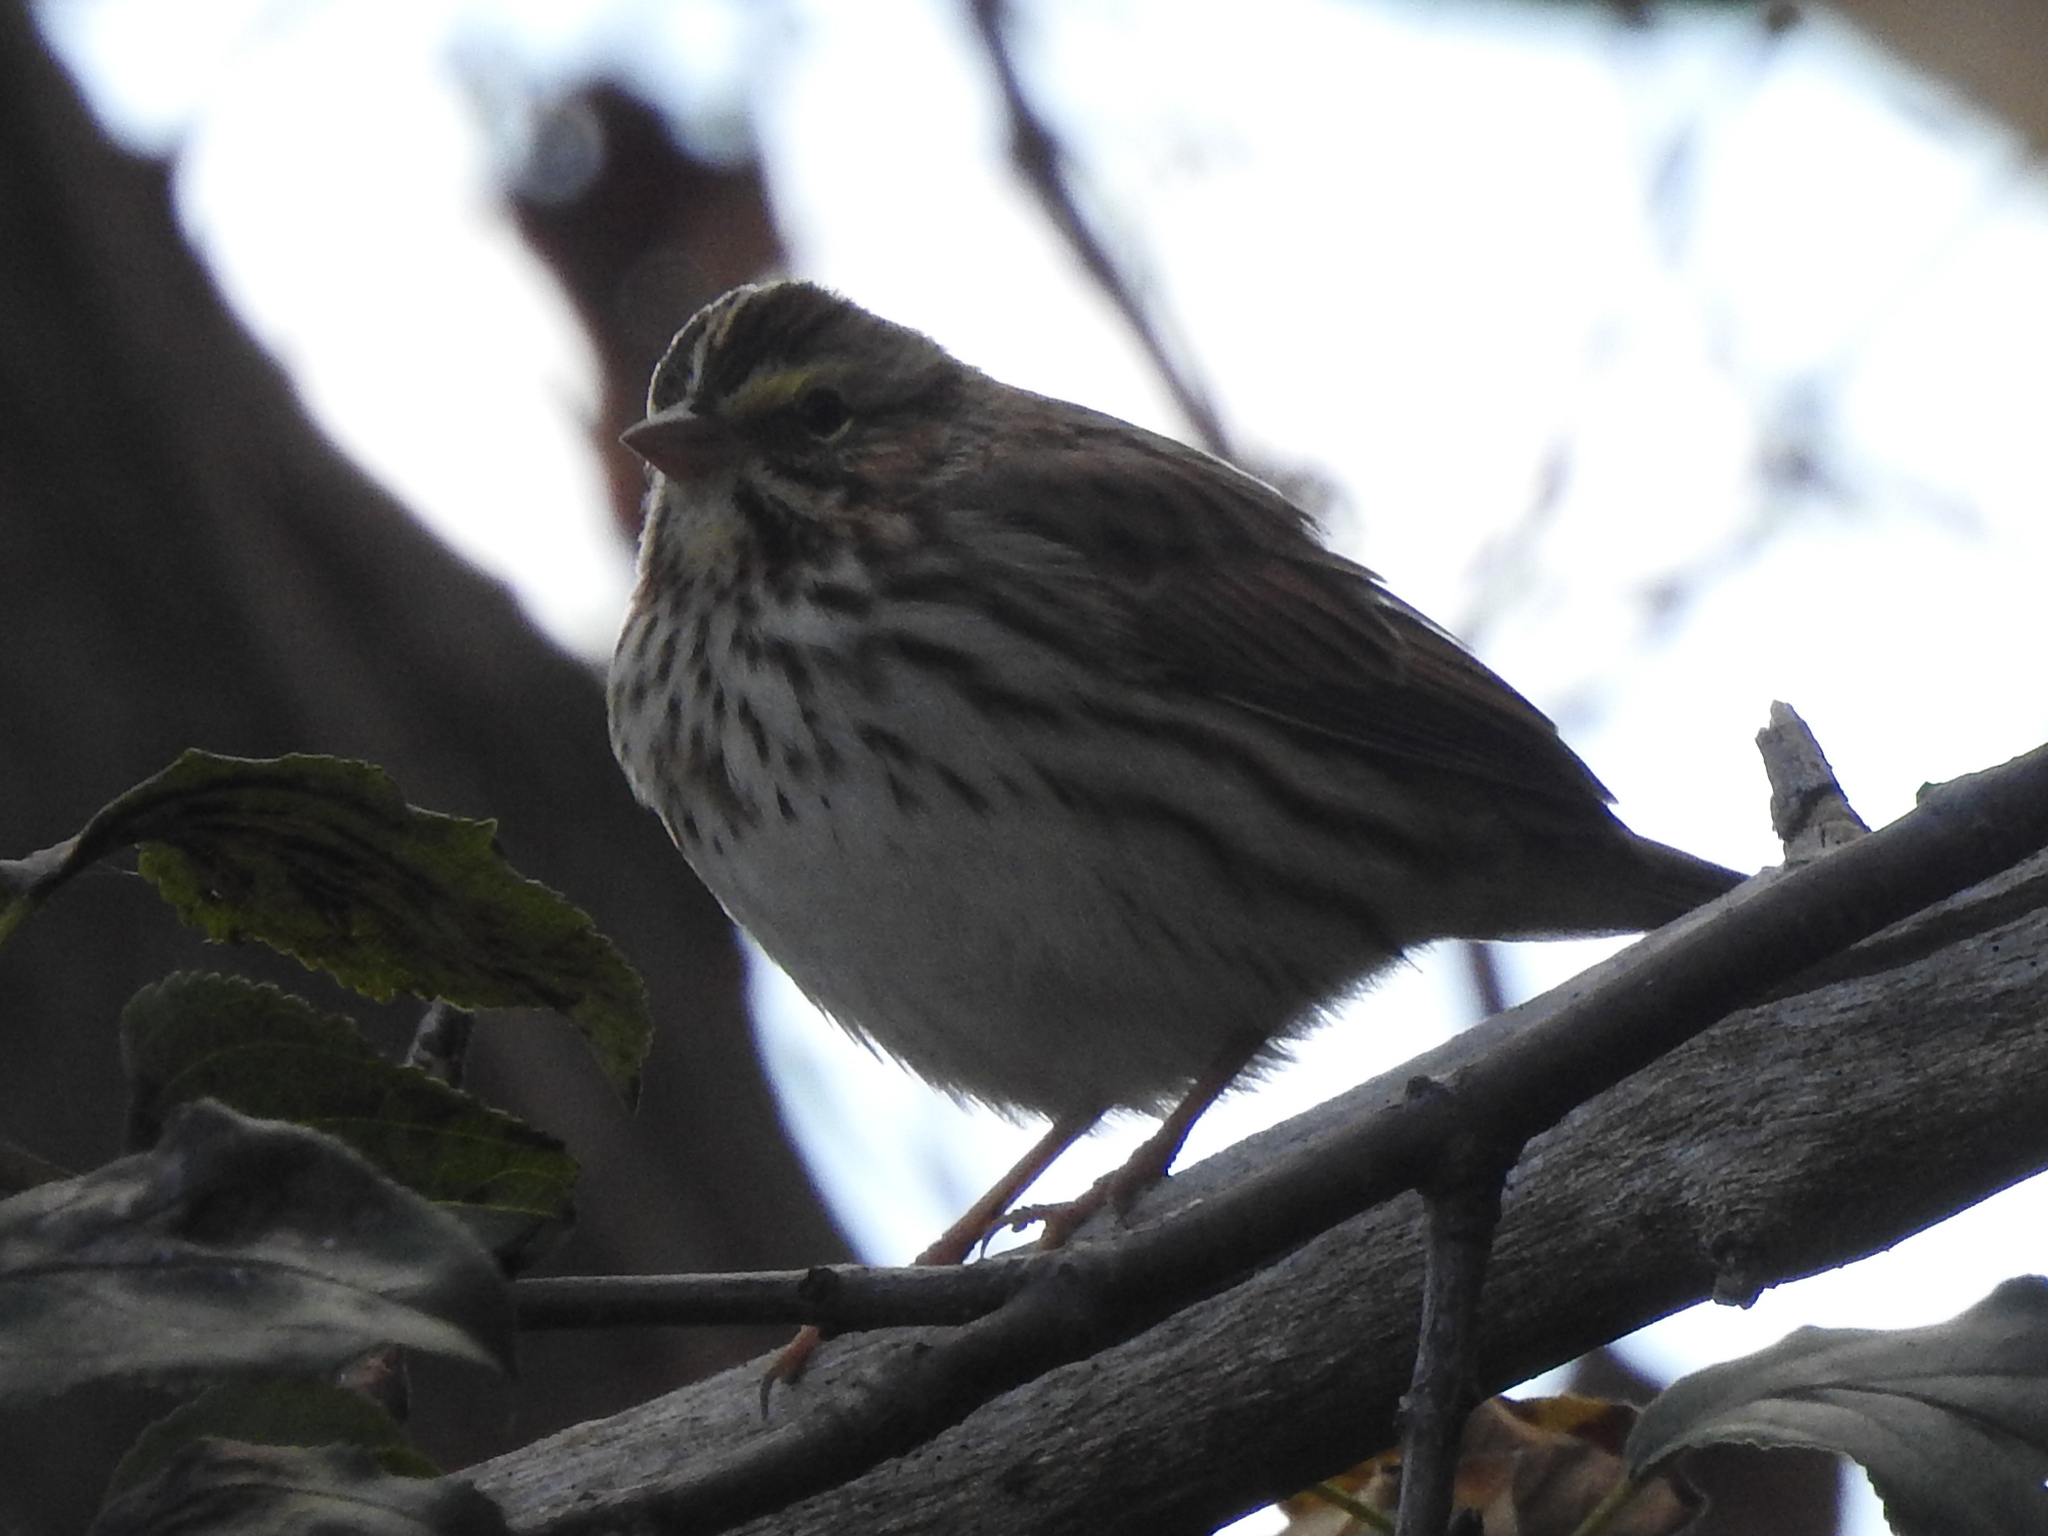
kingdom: Animalia
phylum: Chordata
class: Aves
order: Passeriformes
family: Passerellidae
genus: Passerculus
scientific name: Passerculus sandwichensis
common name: Savannah sparrow
